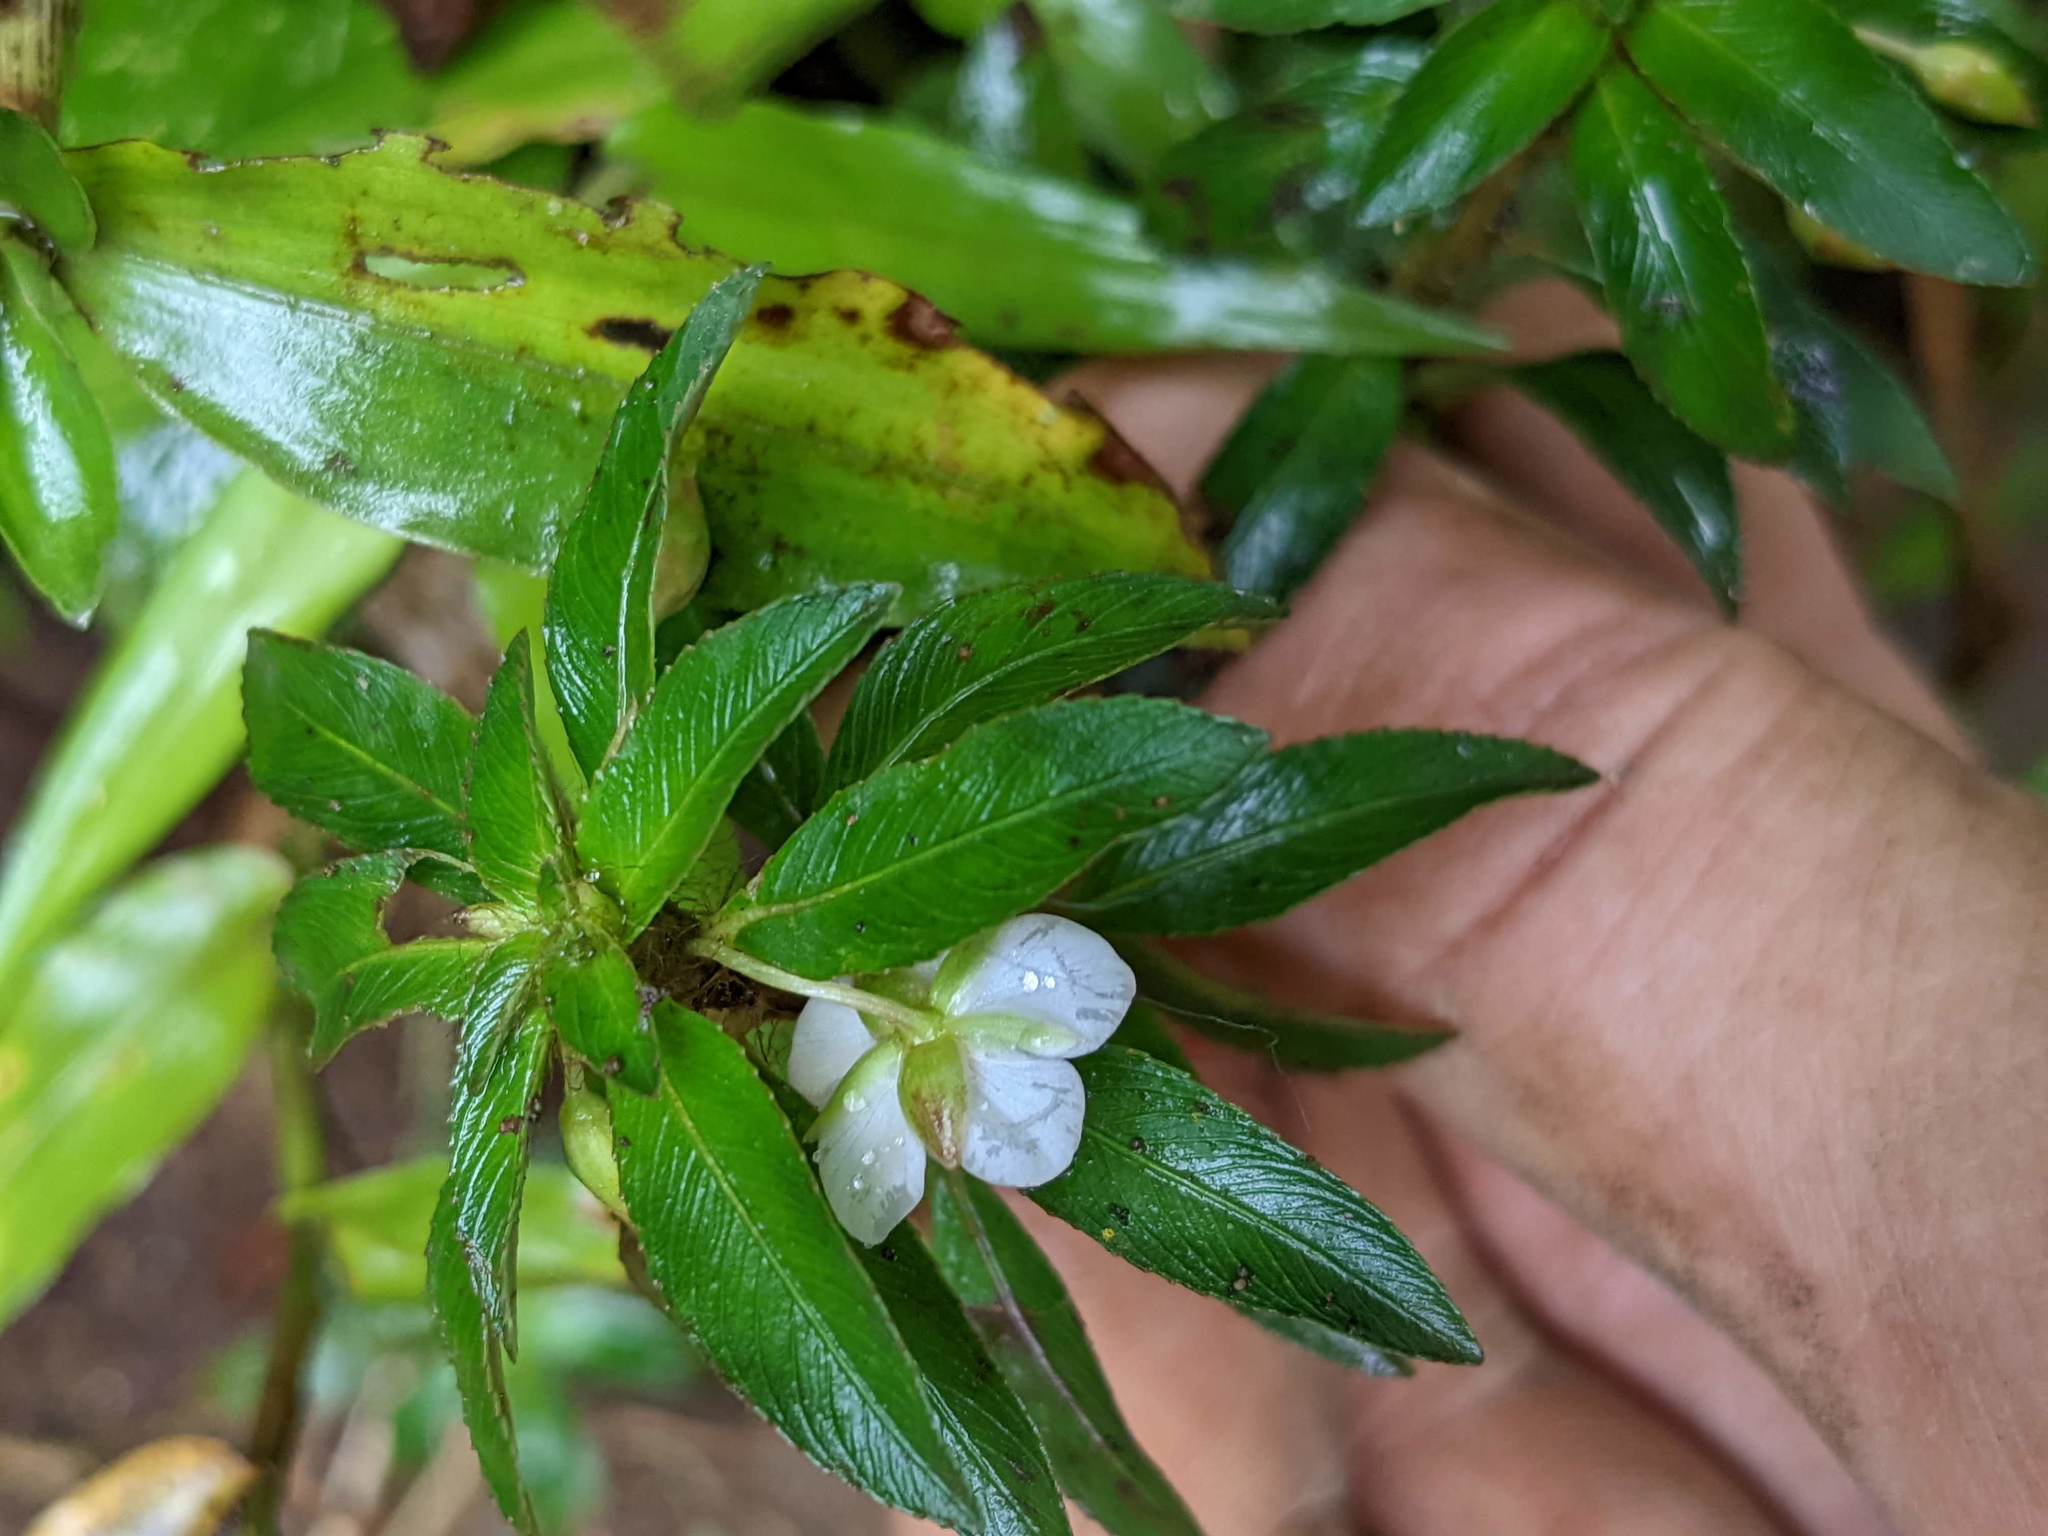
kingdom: Plantae
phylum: Tracheophyta
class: Magnoliopsida
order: Malpighiales
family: Ochnaceae
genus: Sauvagesia
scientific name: Sauvagesia erecta
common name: Creole tea
